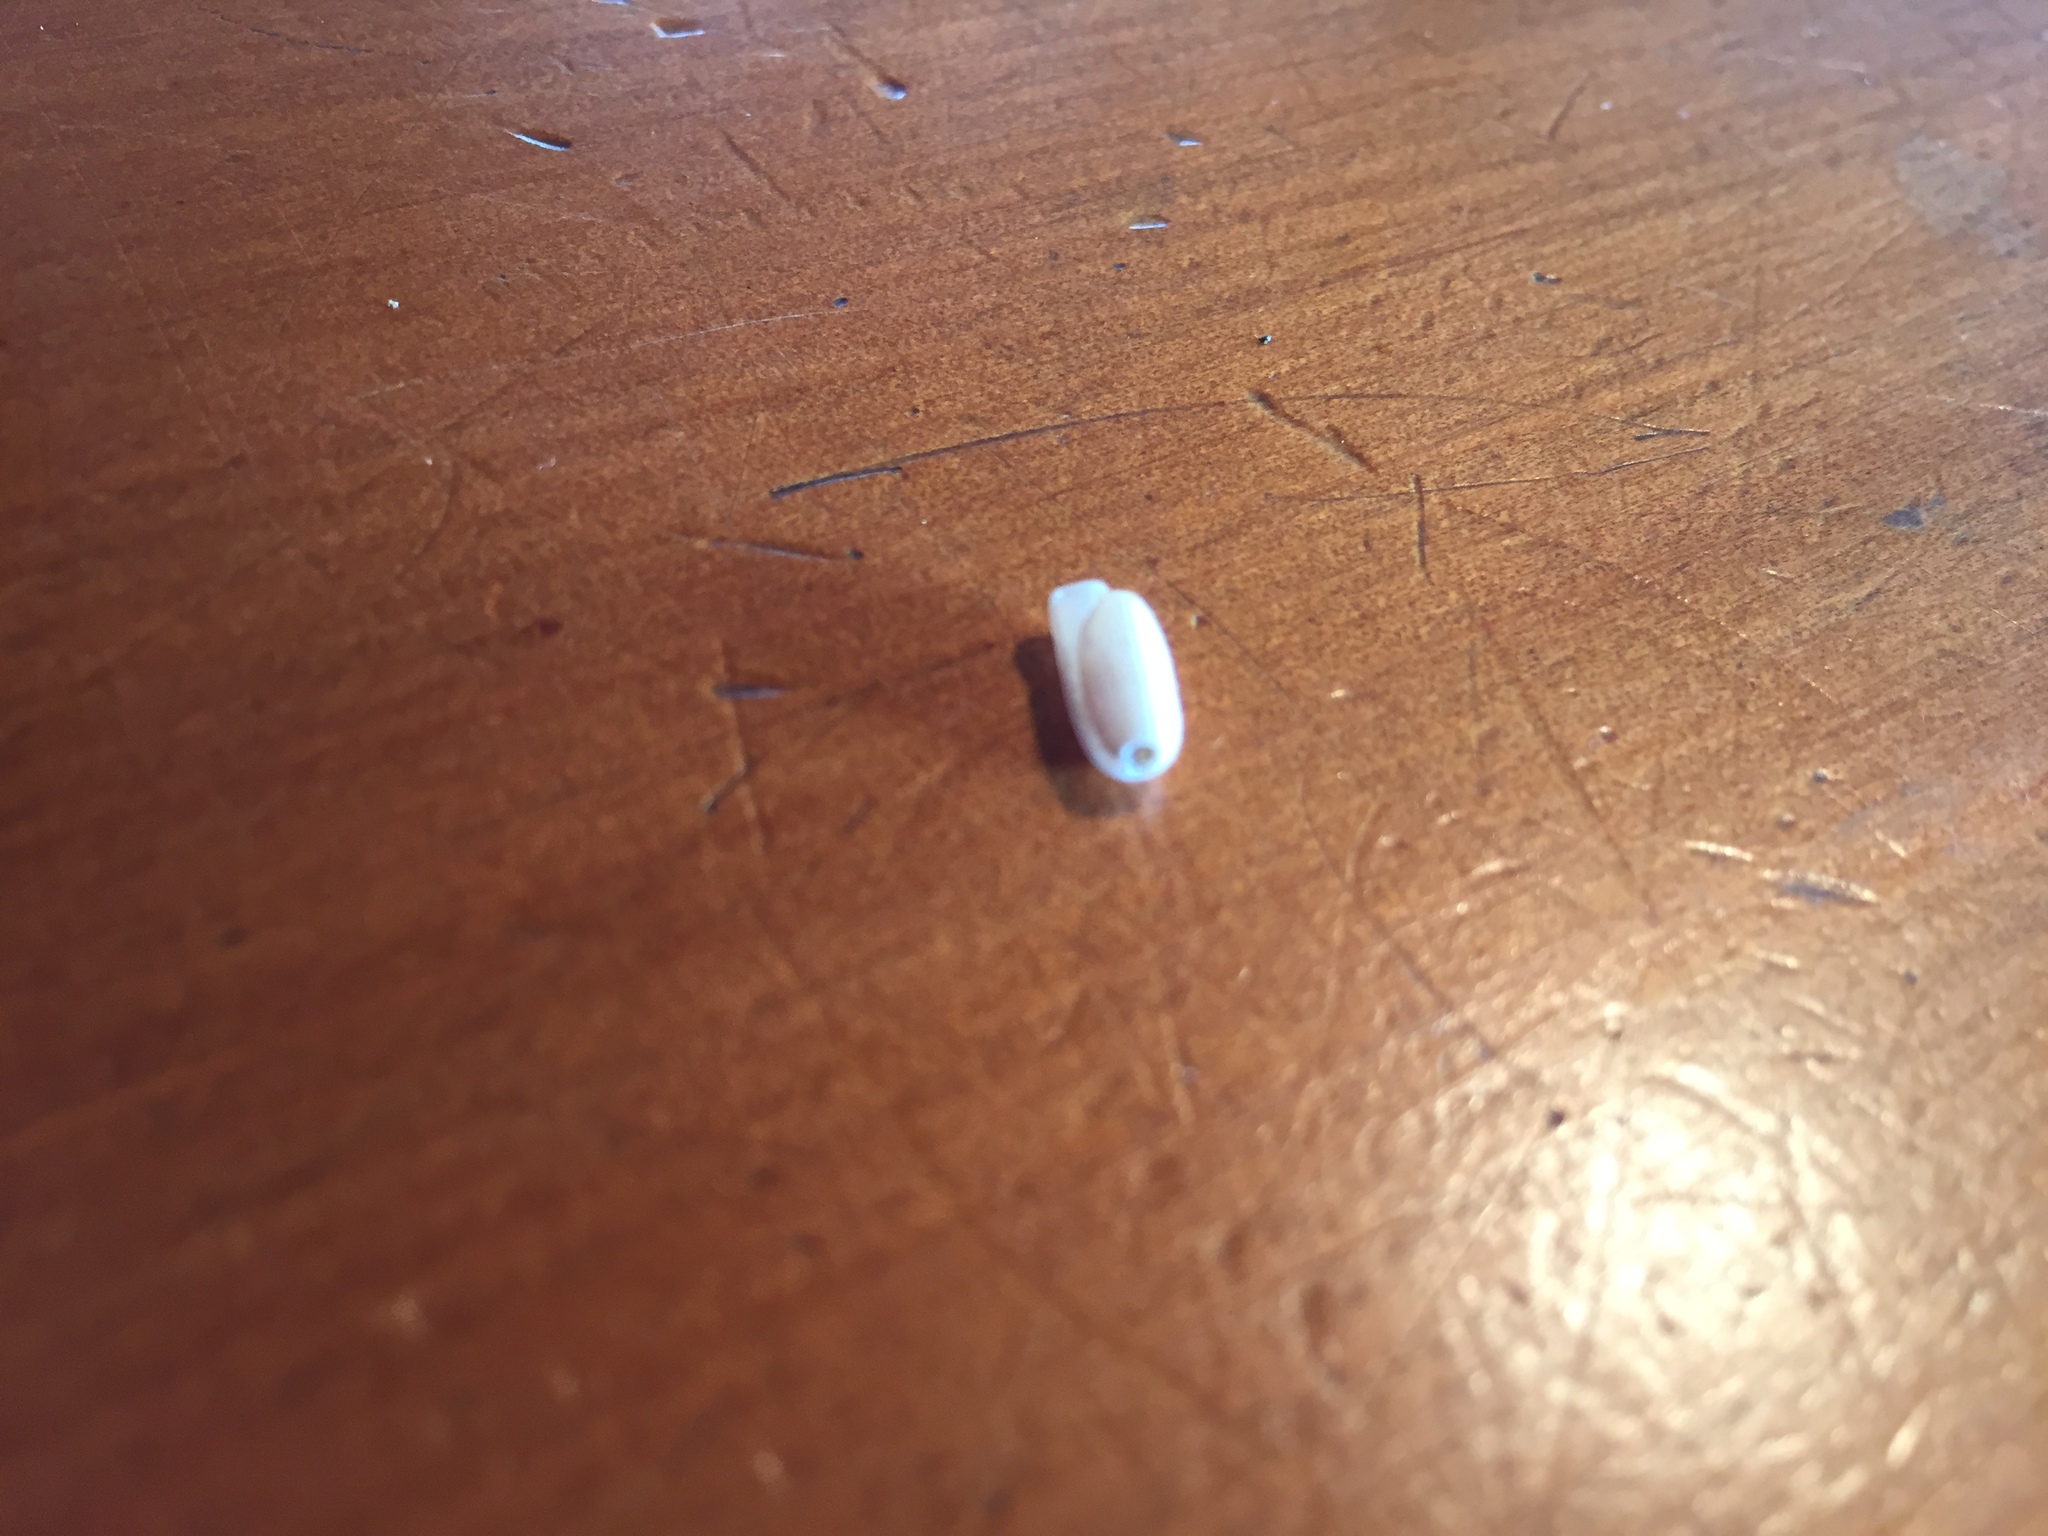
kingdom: Animalia
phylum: Mollusca
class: Gastropoda
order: Cephalaspidea
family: Cylichnidae
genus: Cylichna
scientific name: Cylichna thetidis
